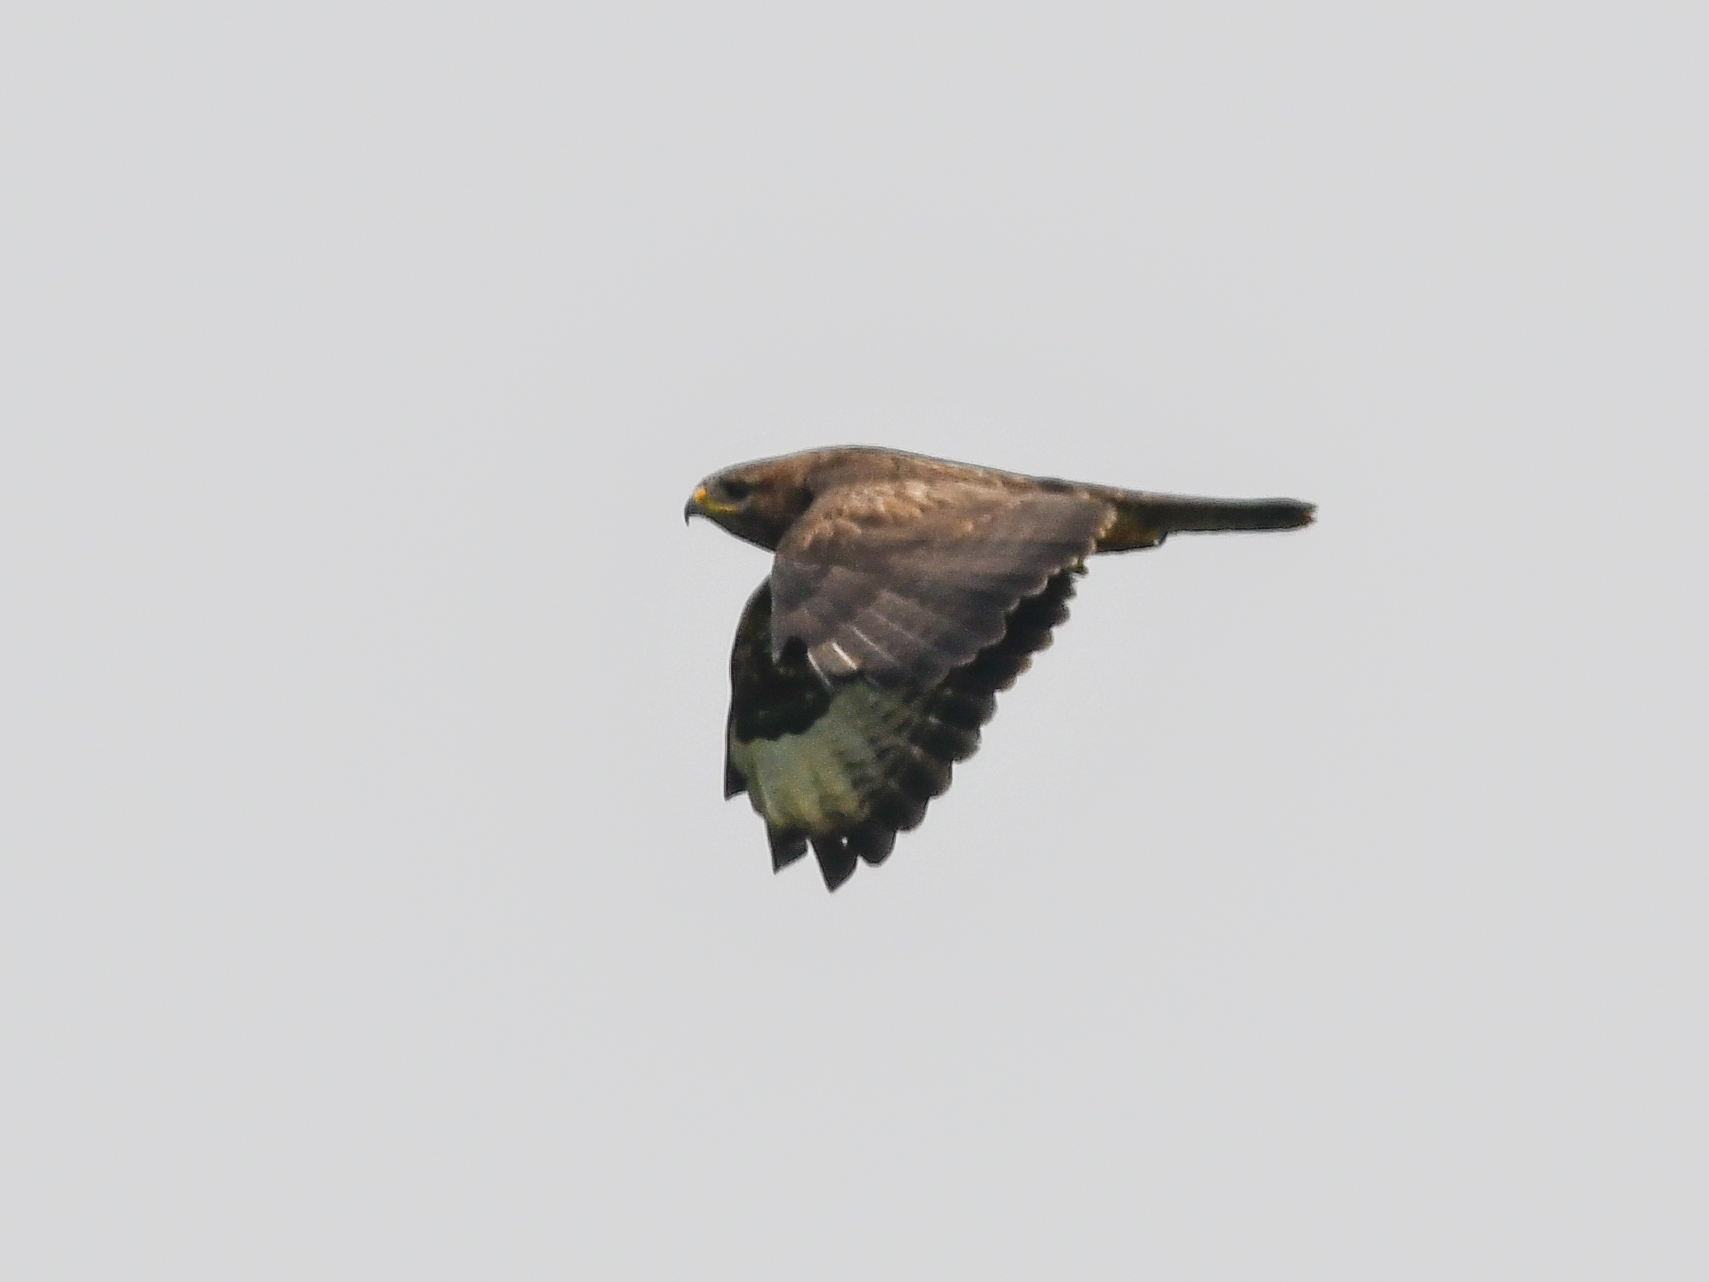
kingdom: Animalia
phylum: Chordata
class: Aves
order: Accipitriformes
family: Accipitridae
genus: Buteo
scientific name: Buteo buteo
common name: Common buzzard
